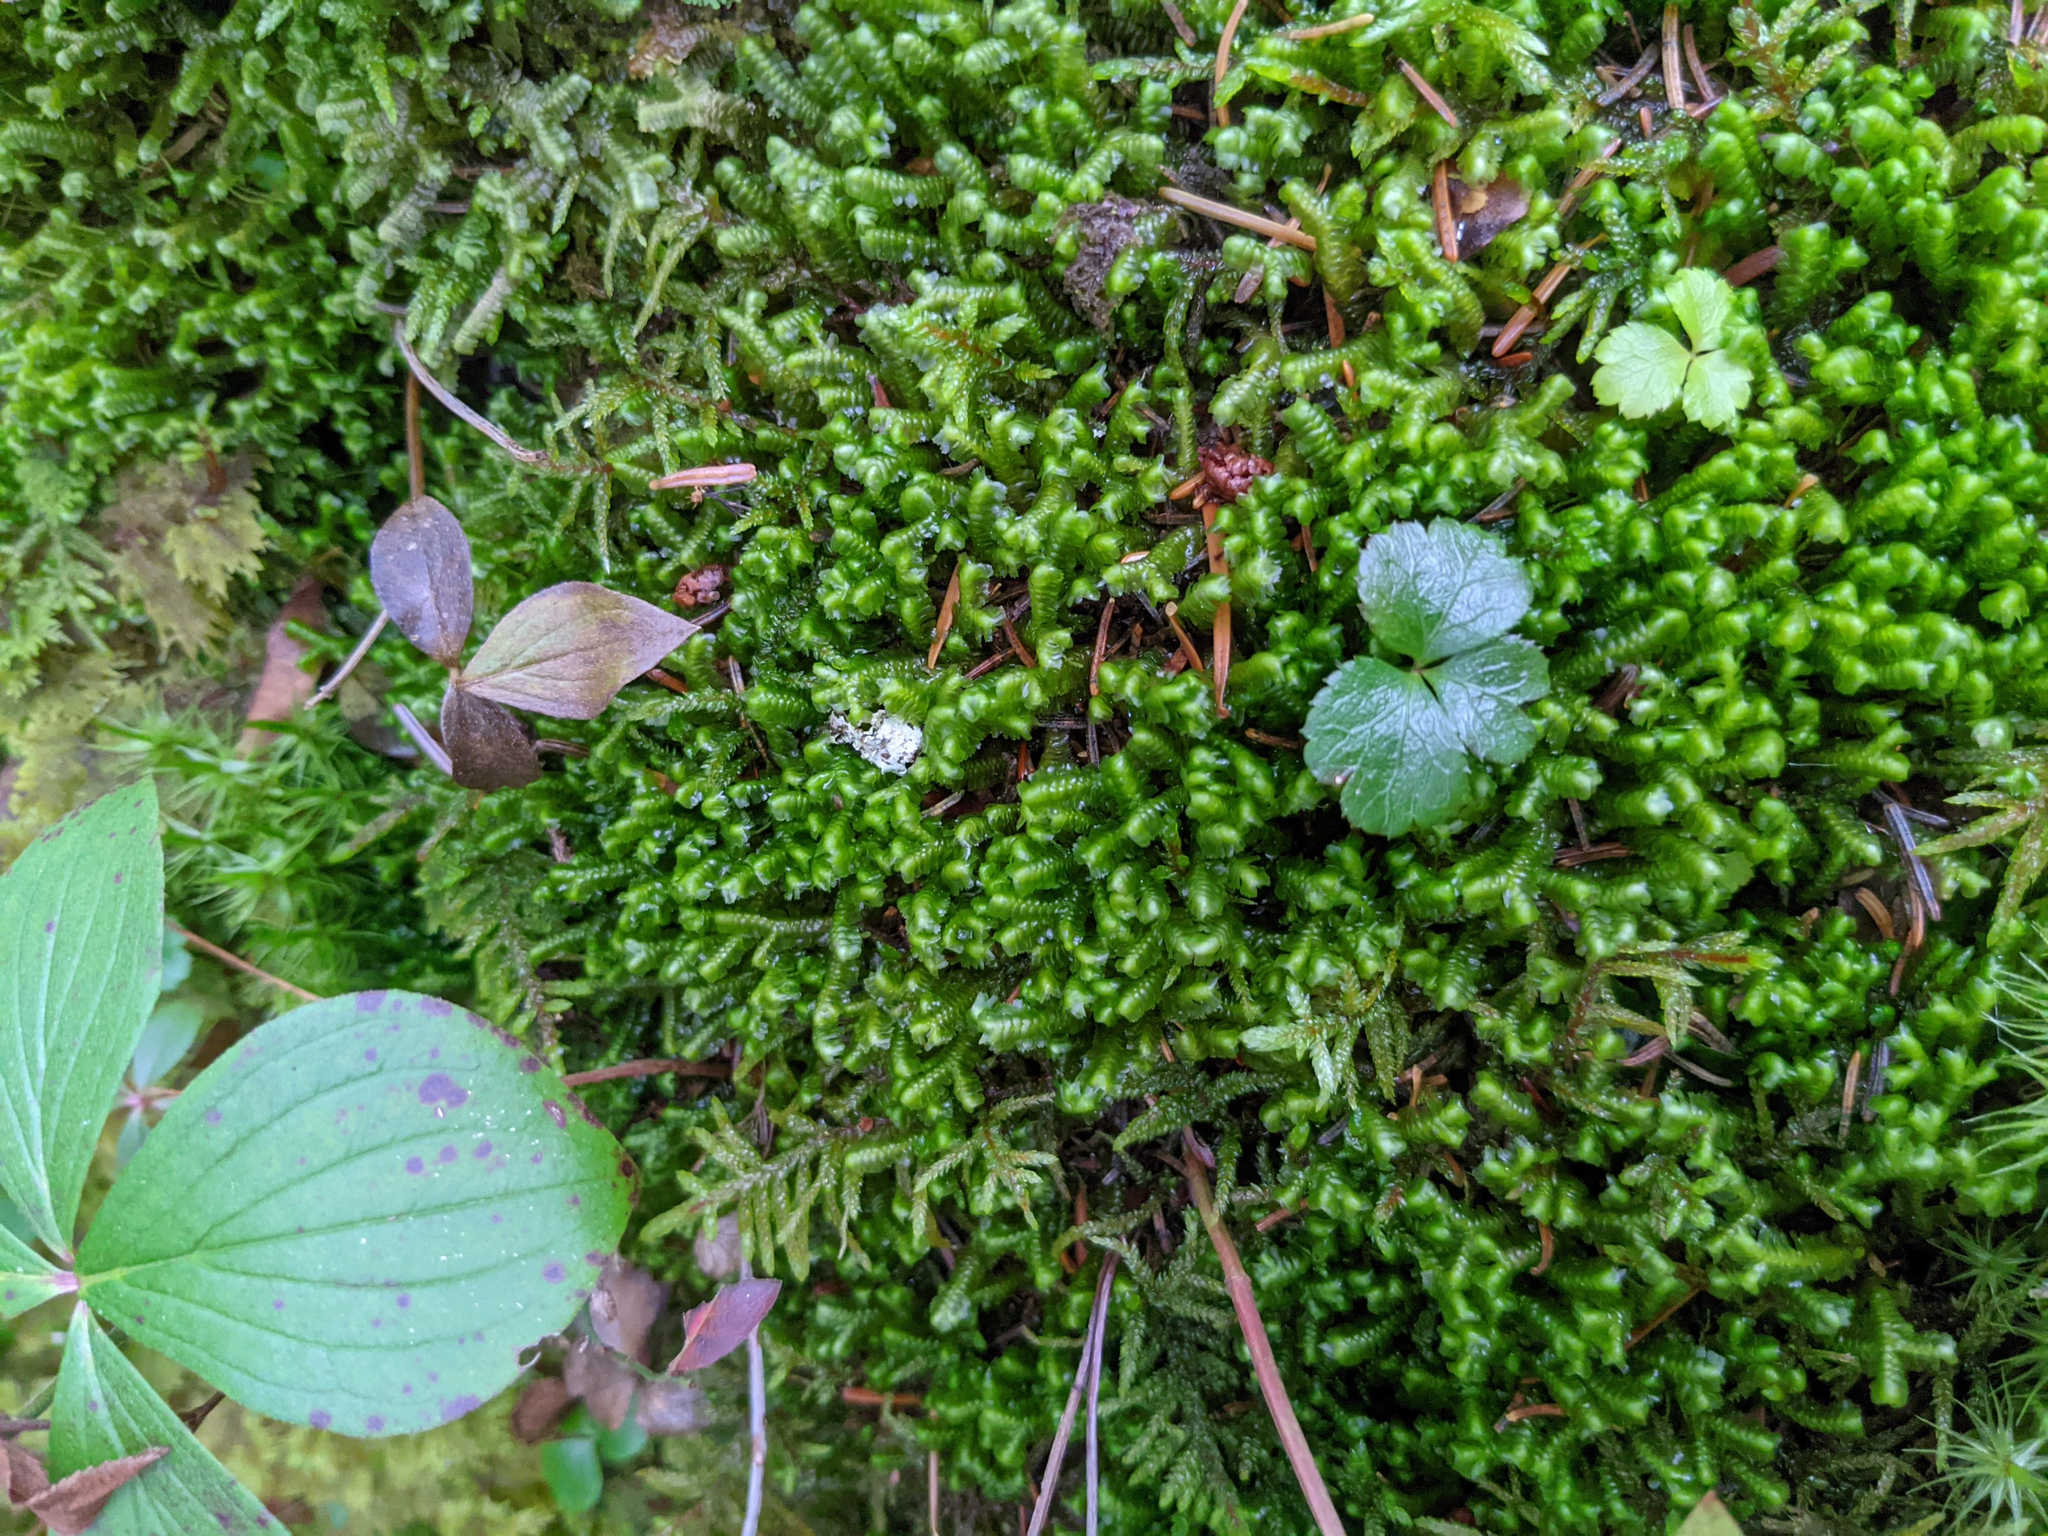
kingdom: Plantae
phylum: Tracheophyta
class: Magnoliopsida
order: Ranunculales
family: Ranunculaceae
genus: Coptis
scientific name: Coptis trifolia
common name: Canker-root
